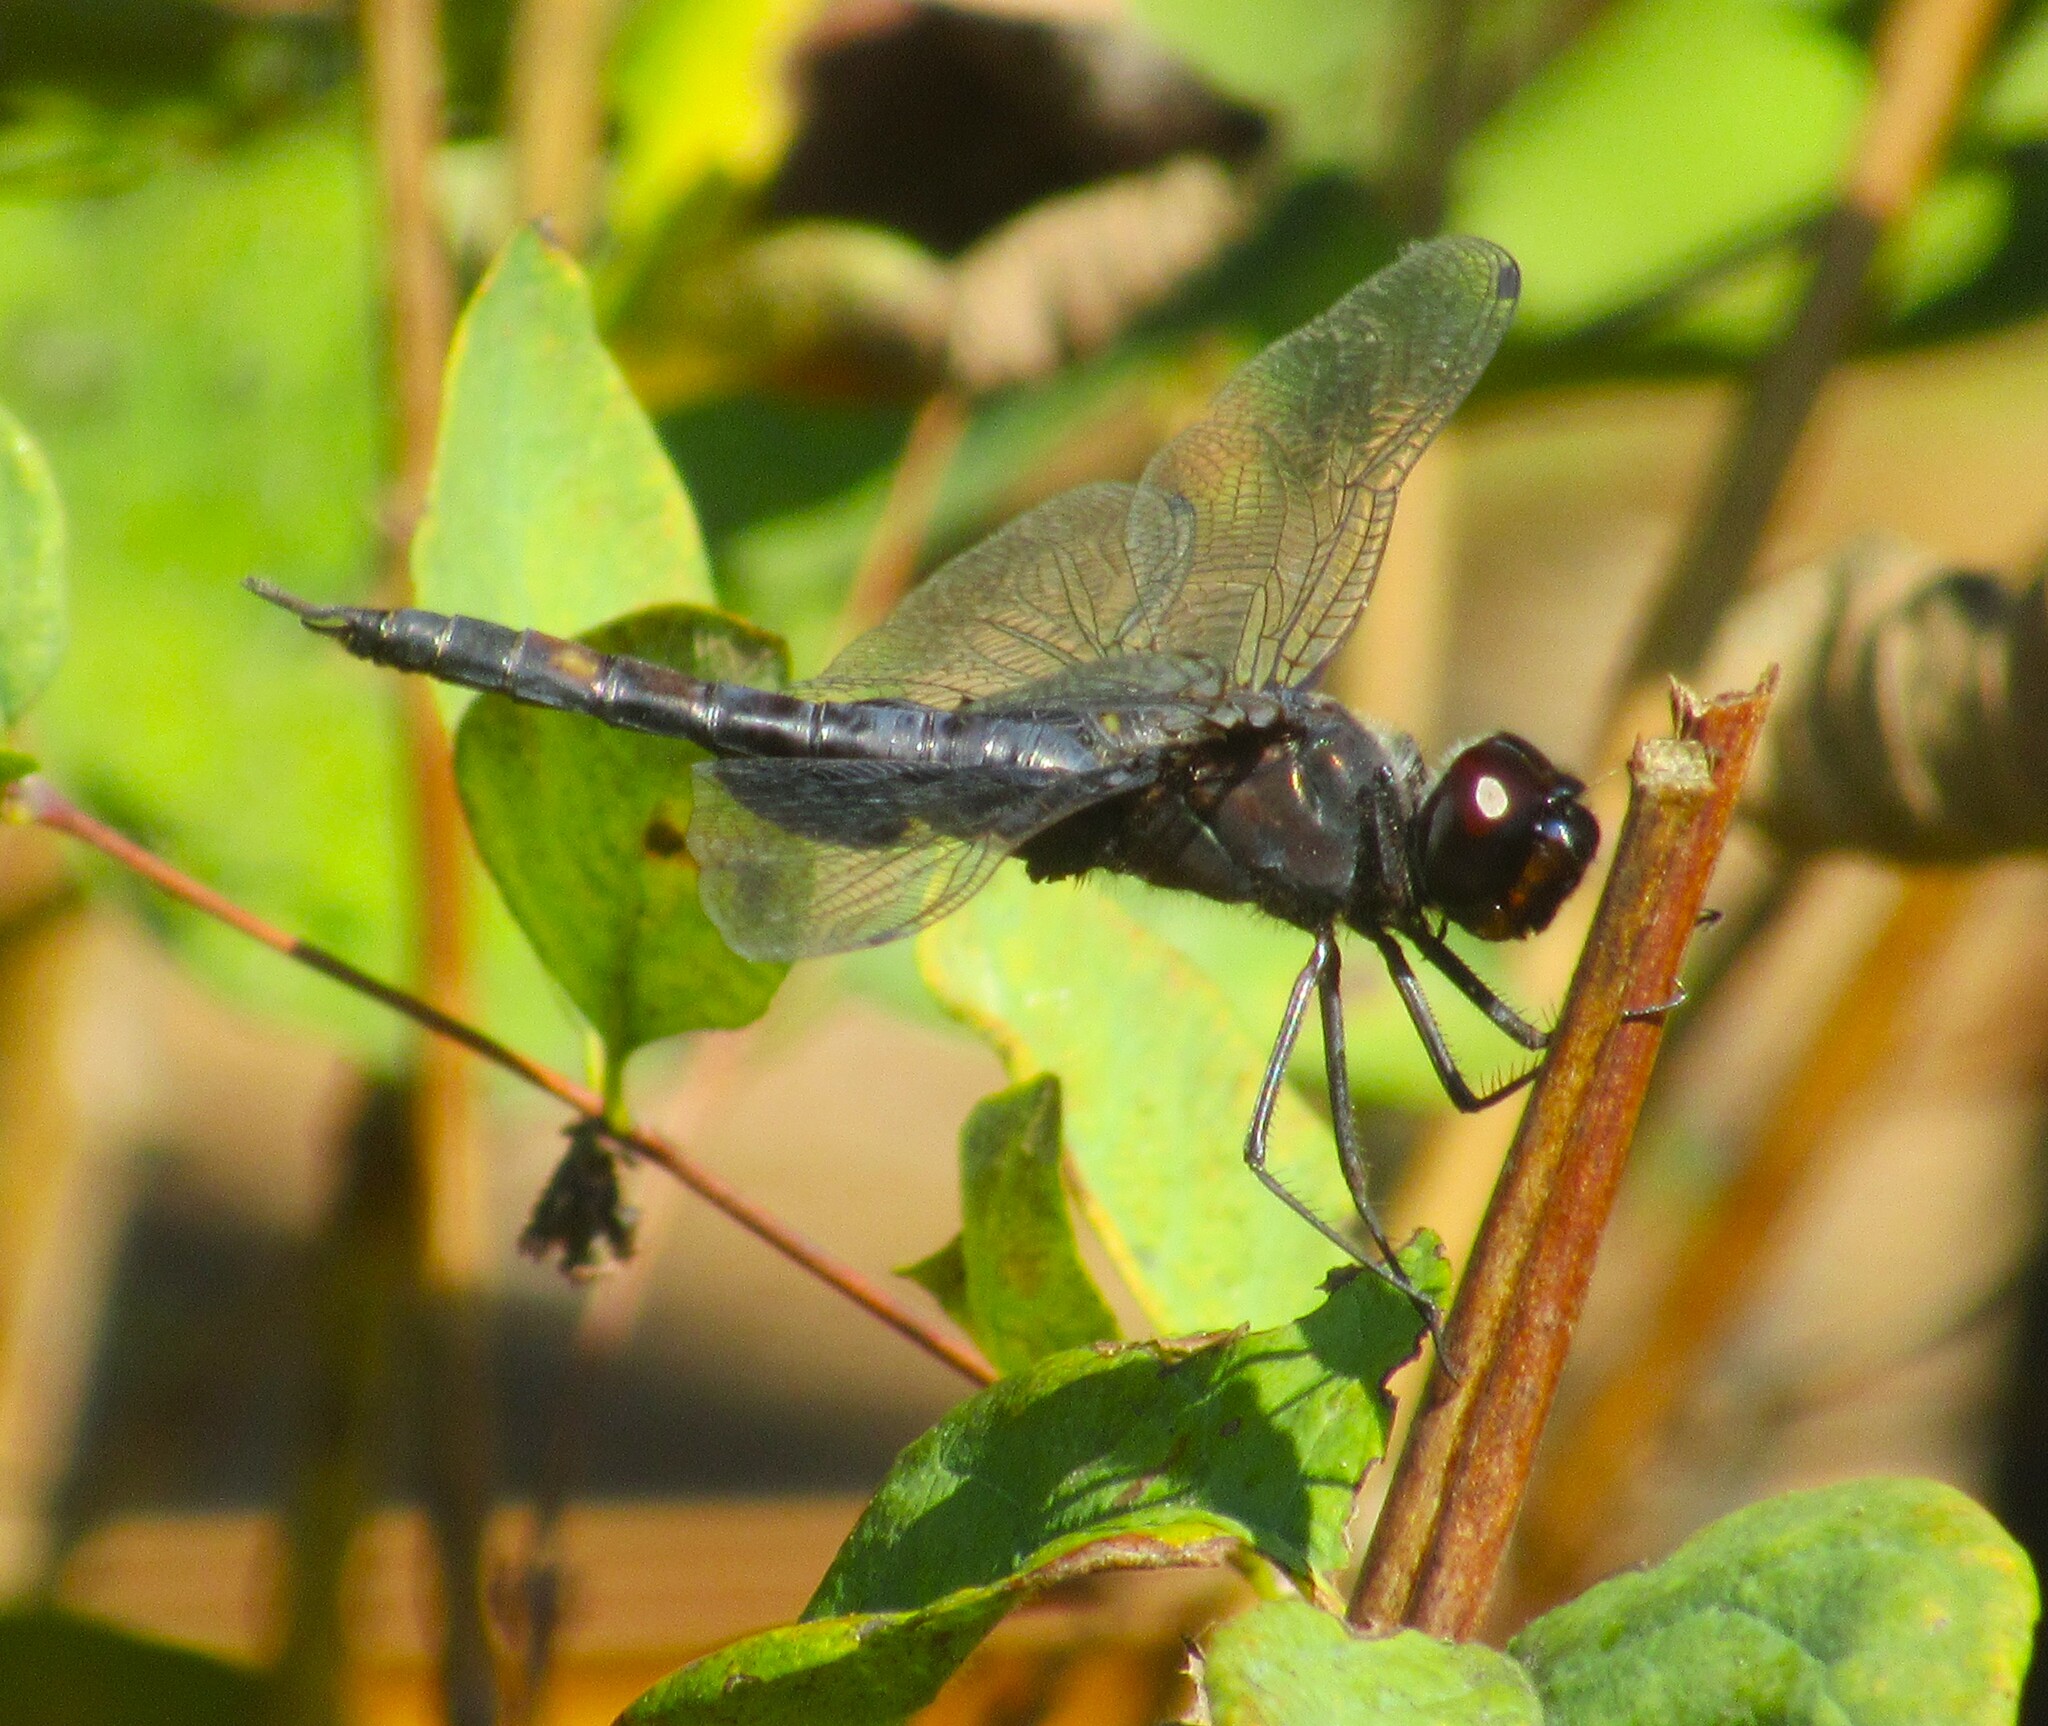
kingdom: Animalia
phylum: Arthropoda
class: Insecta
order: Odonata
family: Libellulidae
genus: Tramea
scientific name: Tramea lacerata
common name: Black saddlebags
